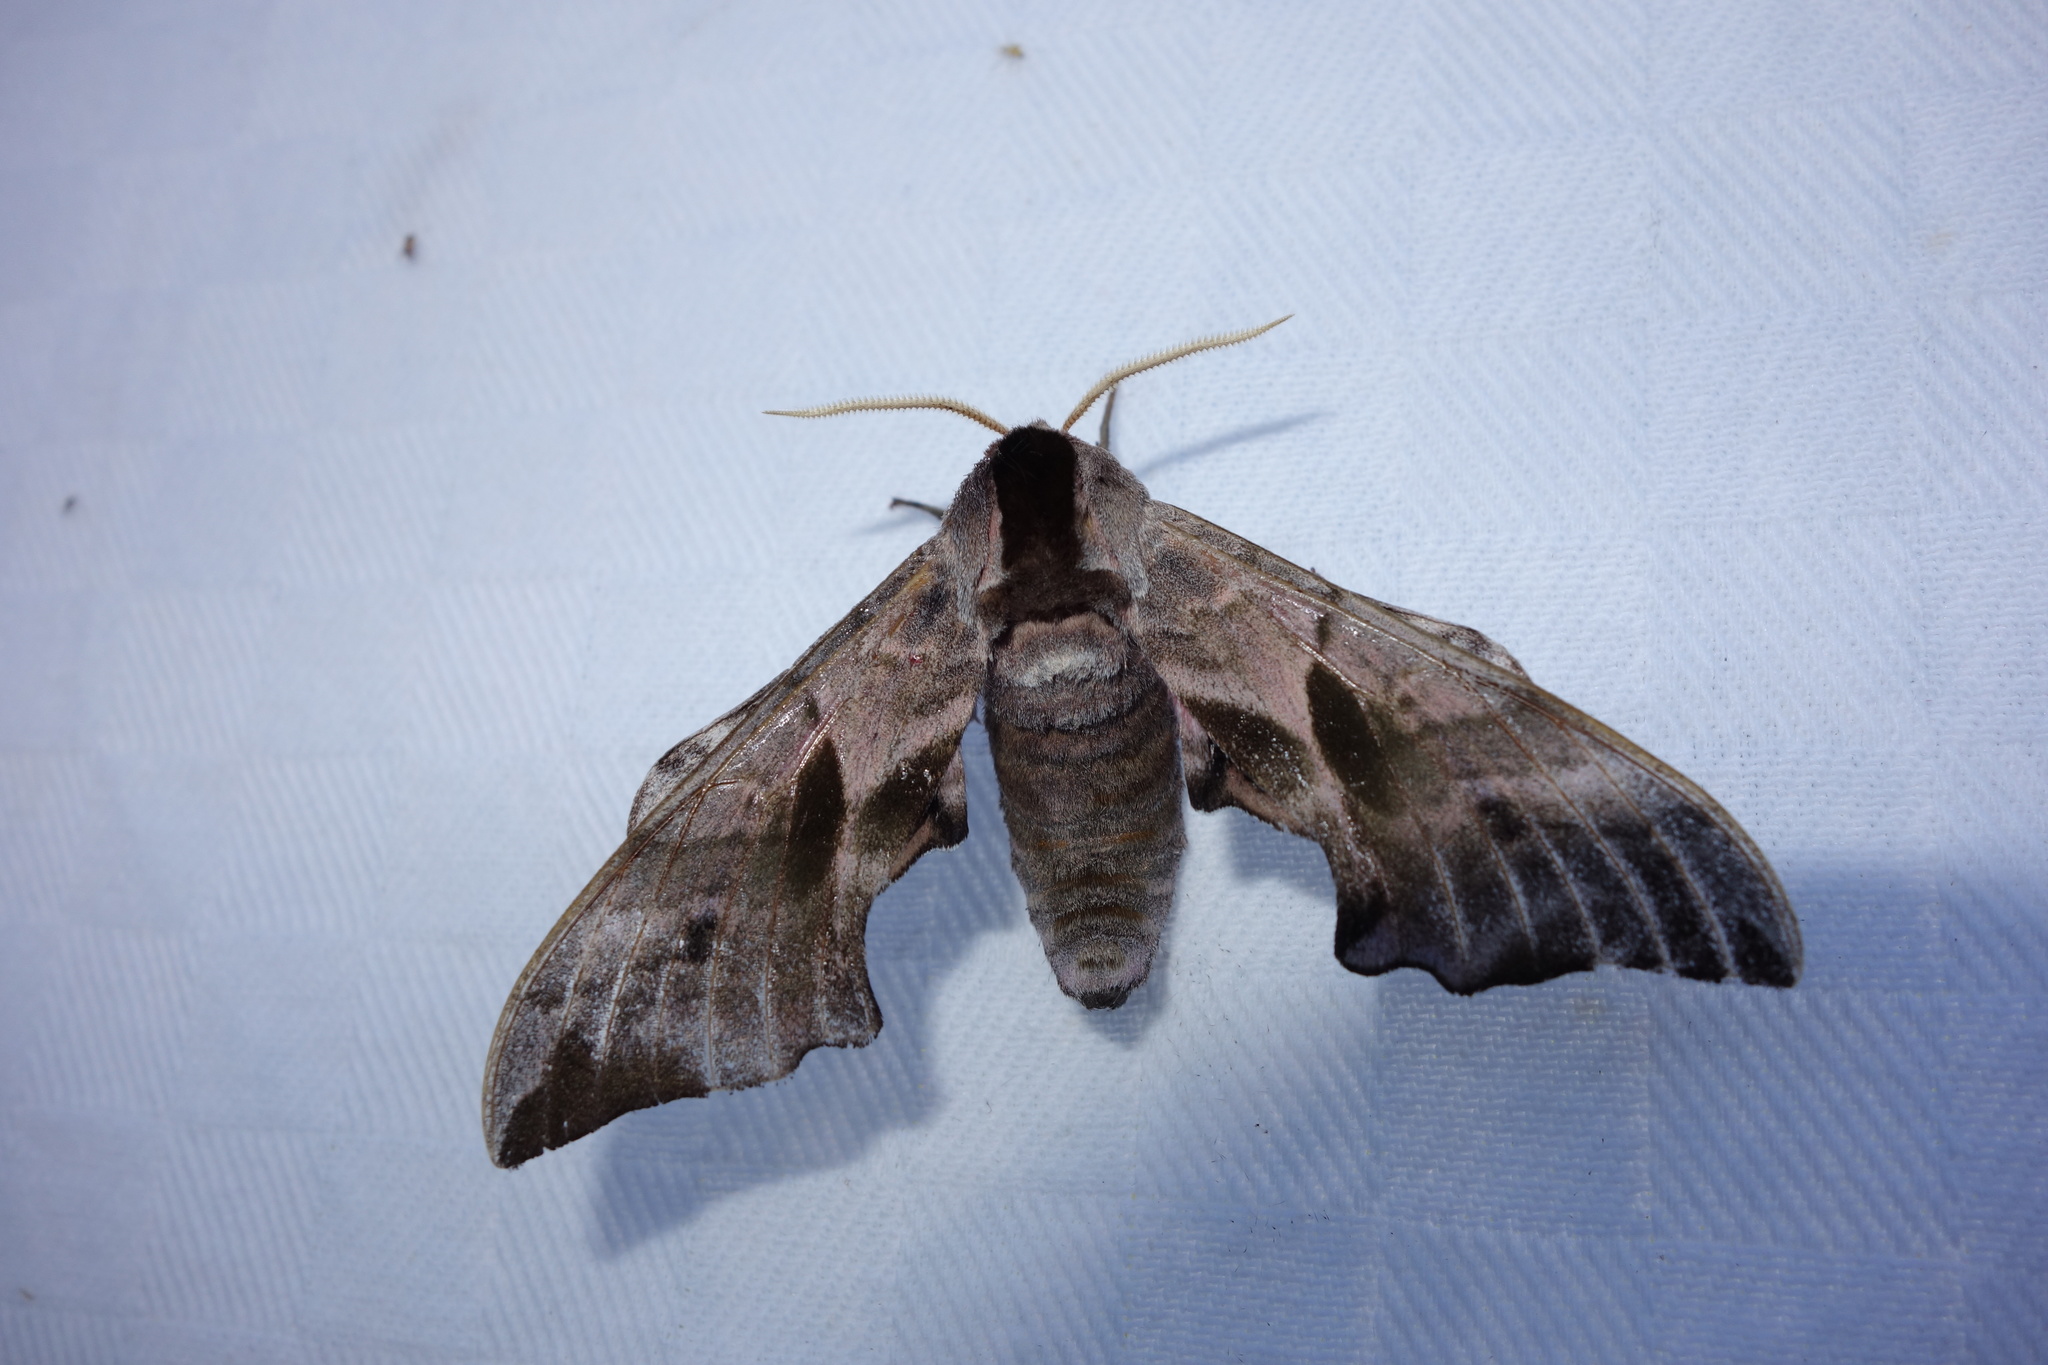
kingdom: Animalia
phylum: Arthropoda
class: Insecta
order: Lepidoptera
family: Sphingidae
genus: Smerinthus
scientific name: Smerinthus ocellata
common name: Eyed hawk-moth
